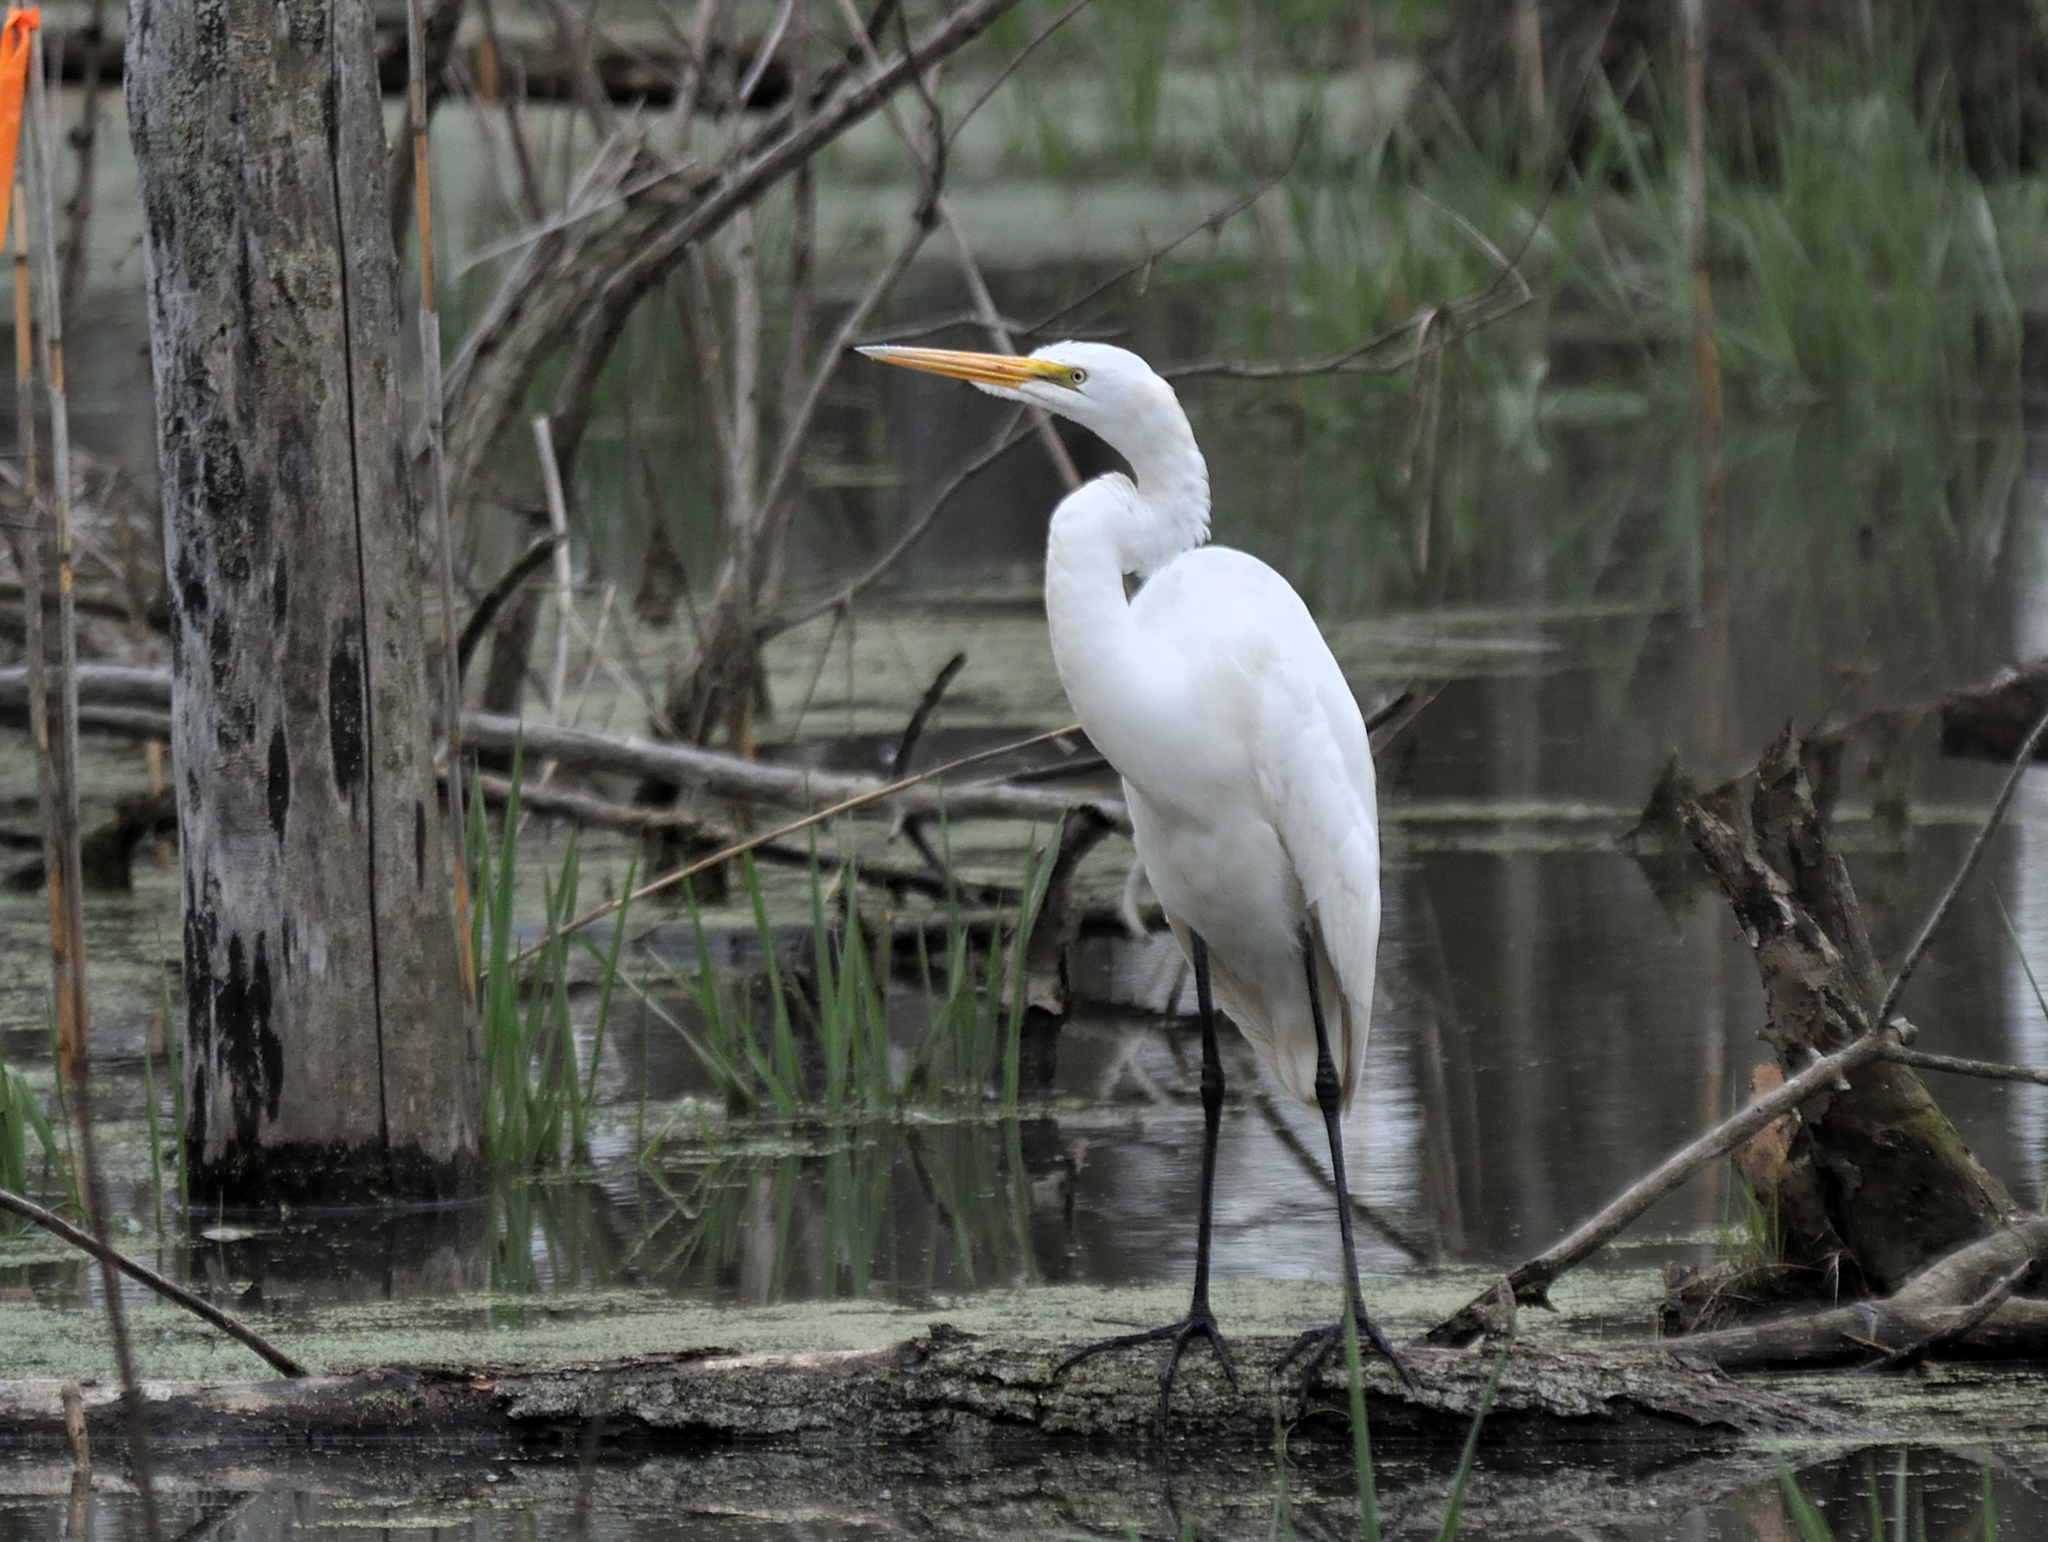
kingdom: Animalia
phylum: Chordata
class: Aves
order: Pelecaniformes
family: Ardeidae
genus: Ardea
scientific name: Ardea alba
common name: Great egret
